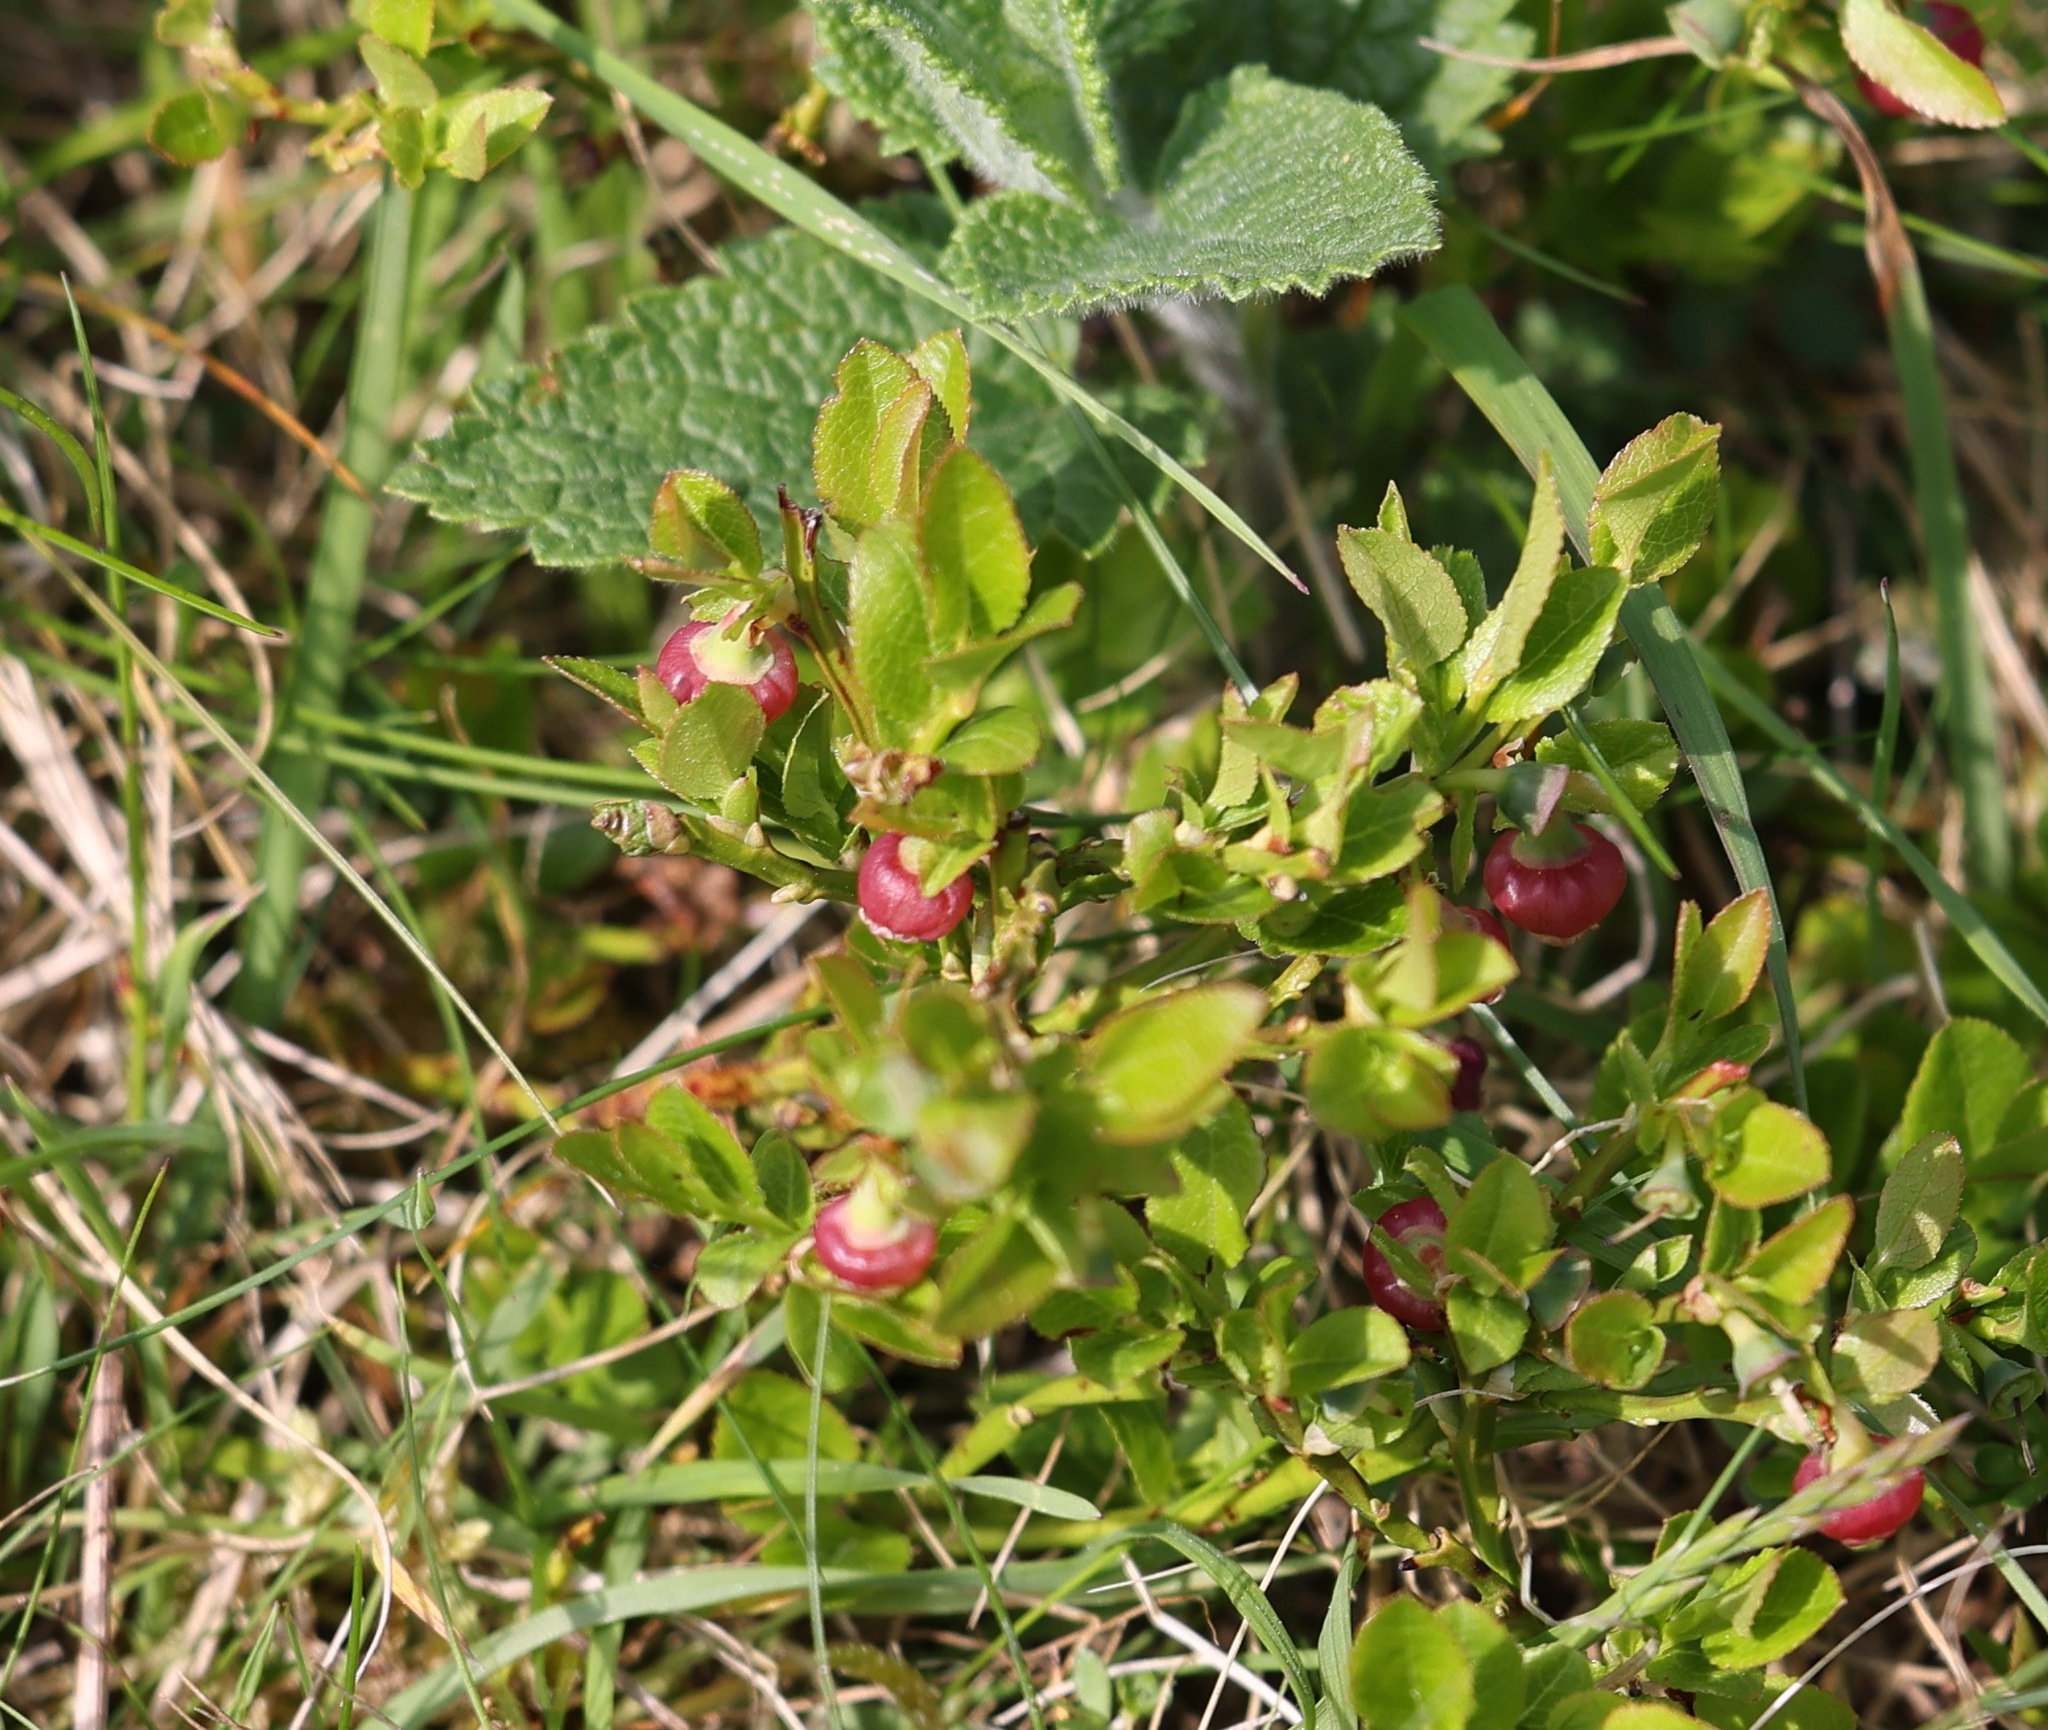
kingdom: Plantae
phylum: Tracheophyta
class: Magnoliopsida
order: Ericales
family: Ericaceae
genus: Vaccinium
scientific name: Vaccinium myrtillus
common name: Bilberry
